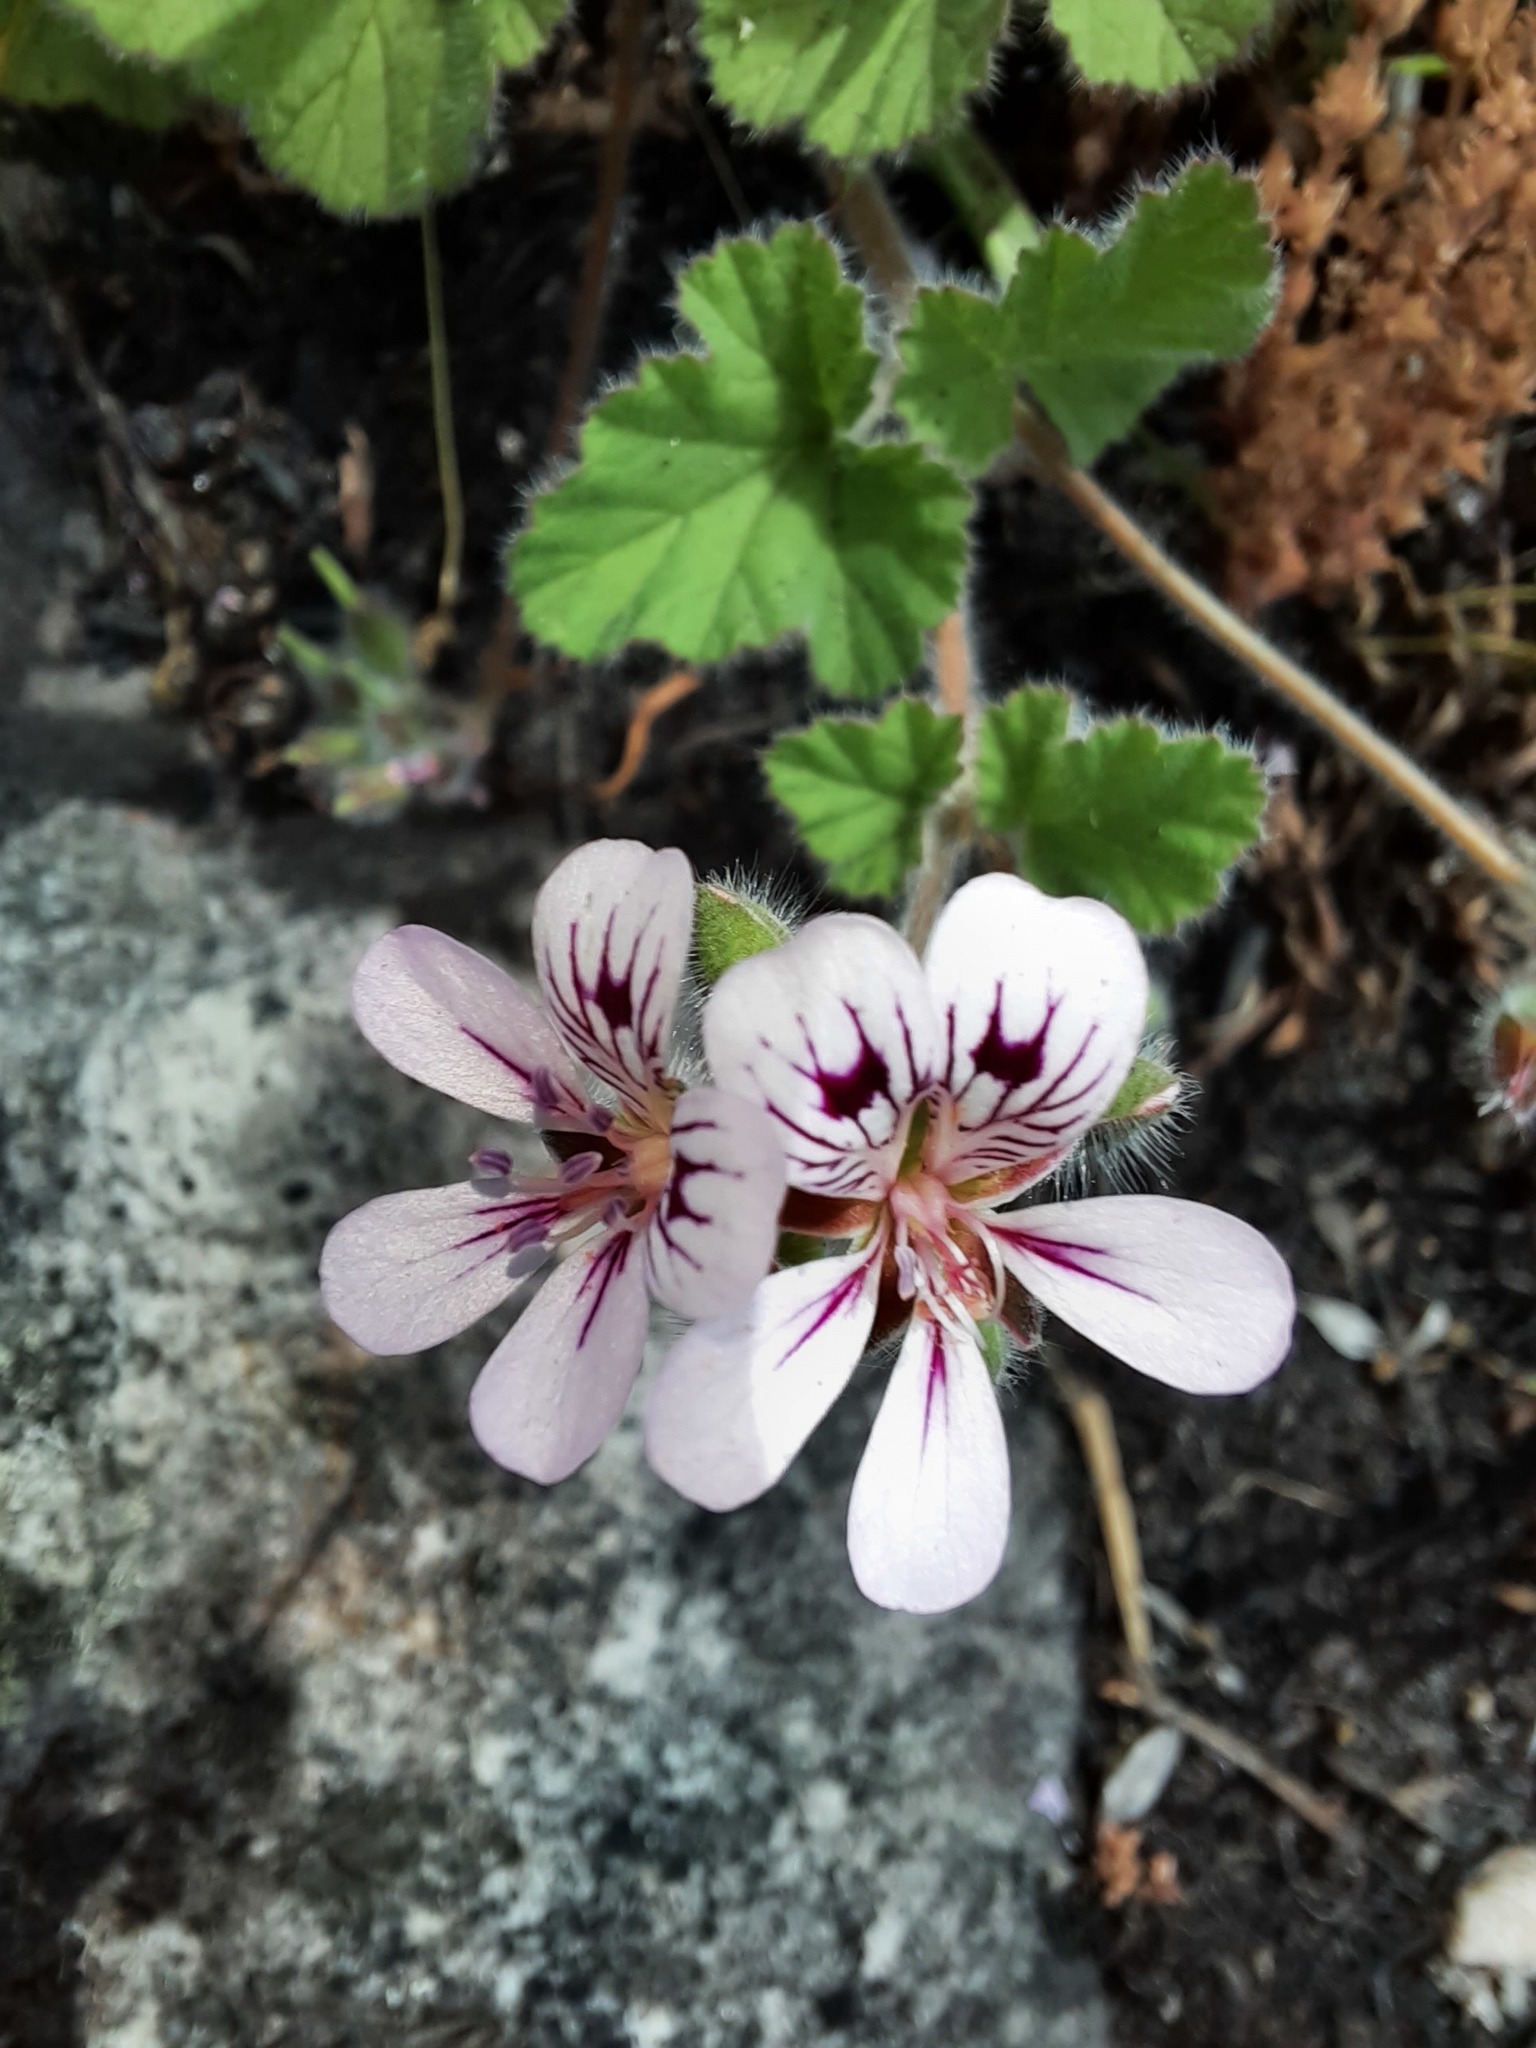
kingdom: Plantae
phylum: Tracheophyta
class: Magnoliopsida
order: Geraniales
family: Geraniaceae
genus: Pelargonium
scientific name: Pelargonium australe
